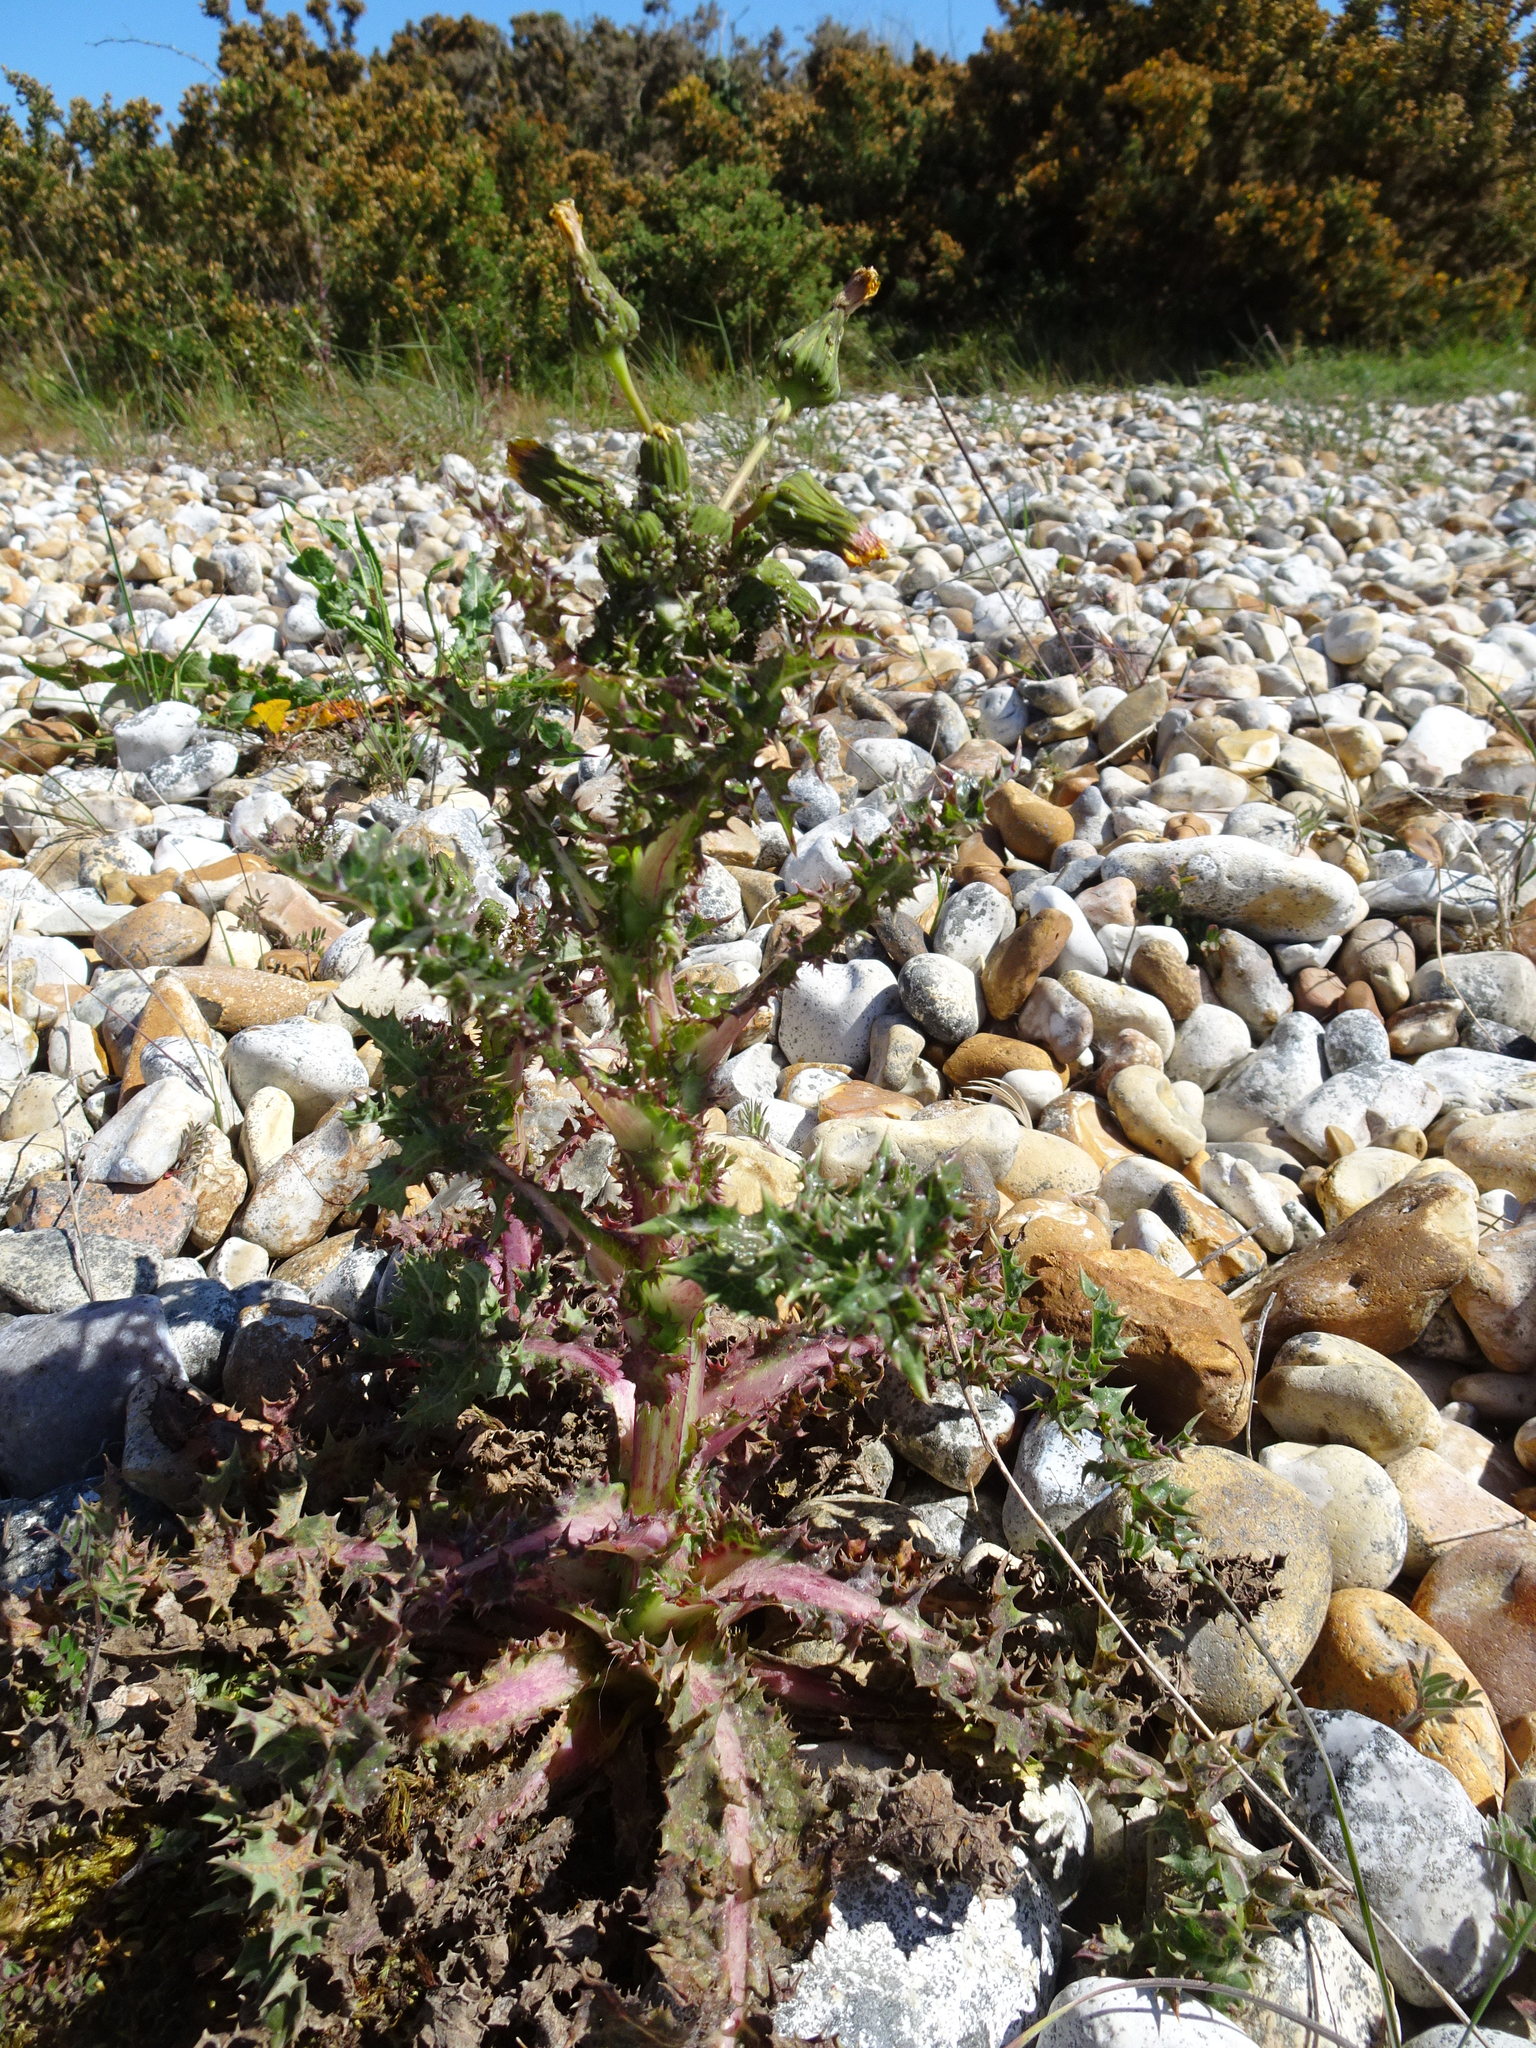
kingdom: Plantae
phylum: Tracheophyta
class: Magnoliopsida
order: Asterales
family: Asteraceae
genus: Sonchus
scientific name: Sonchus asper
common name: Prickly sow-thistle
